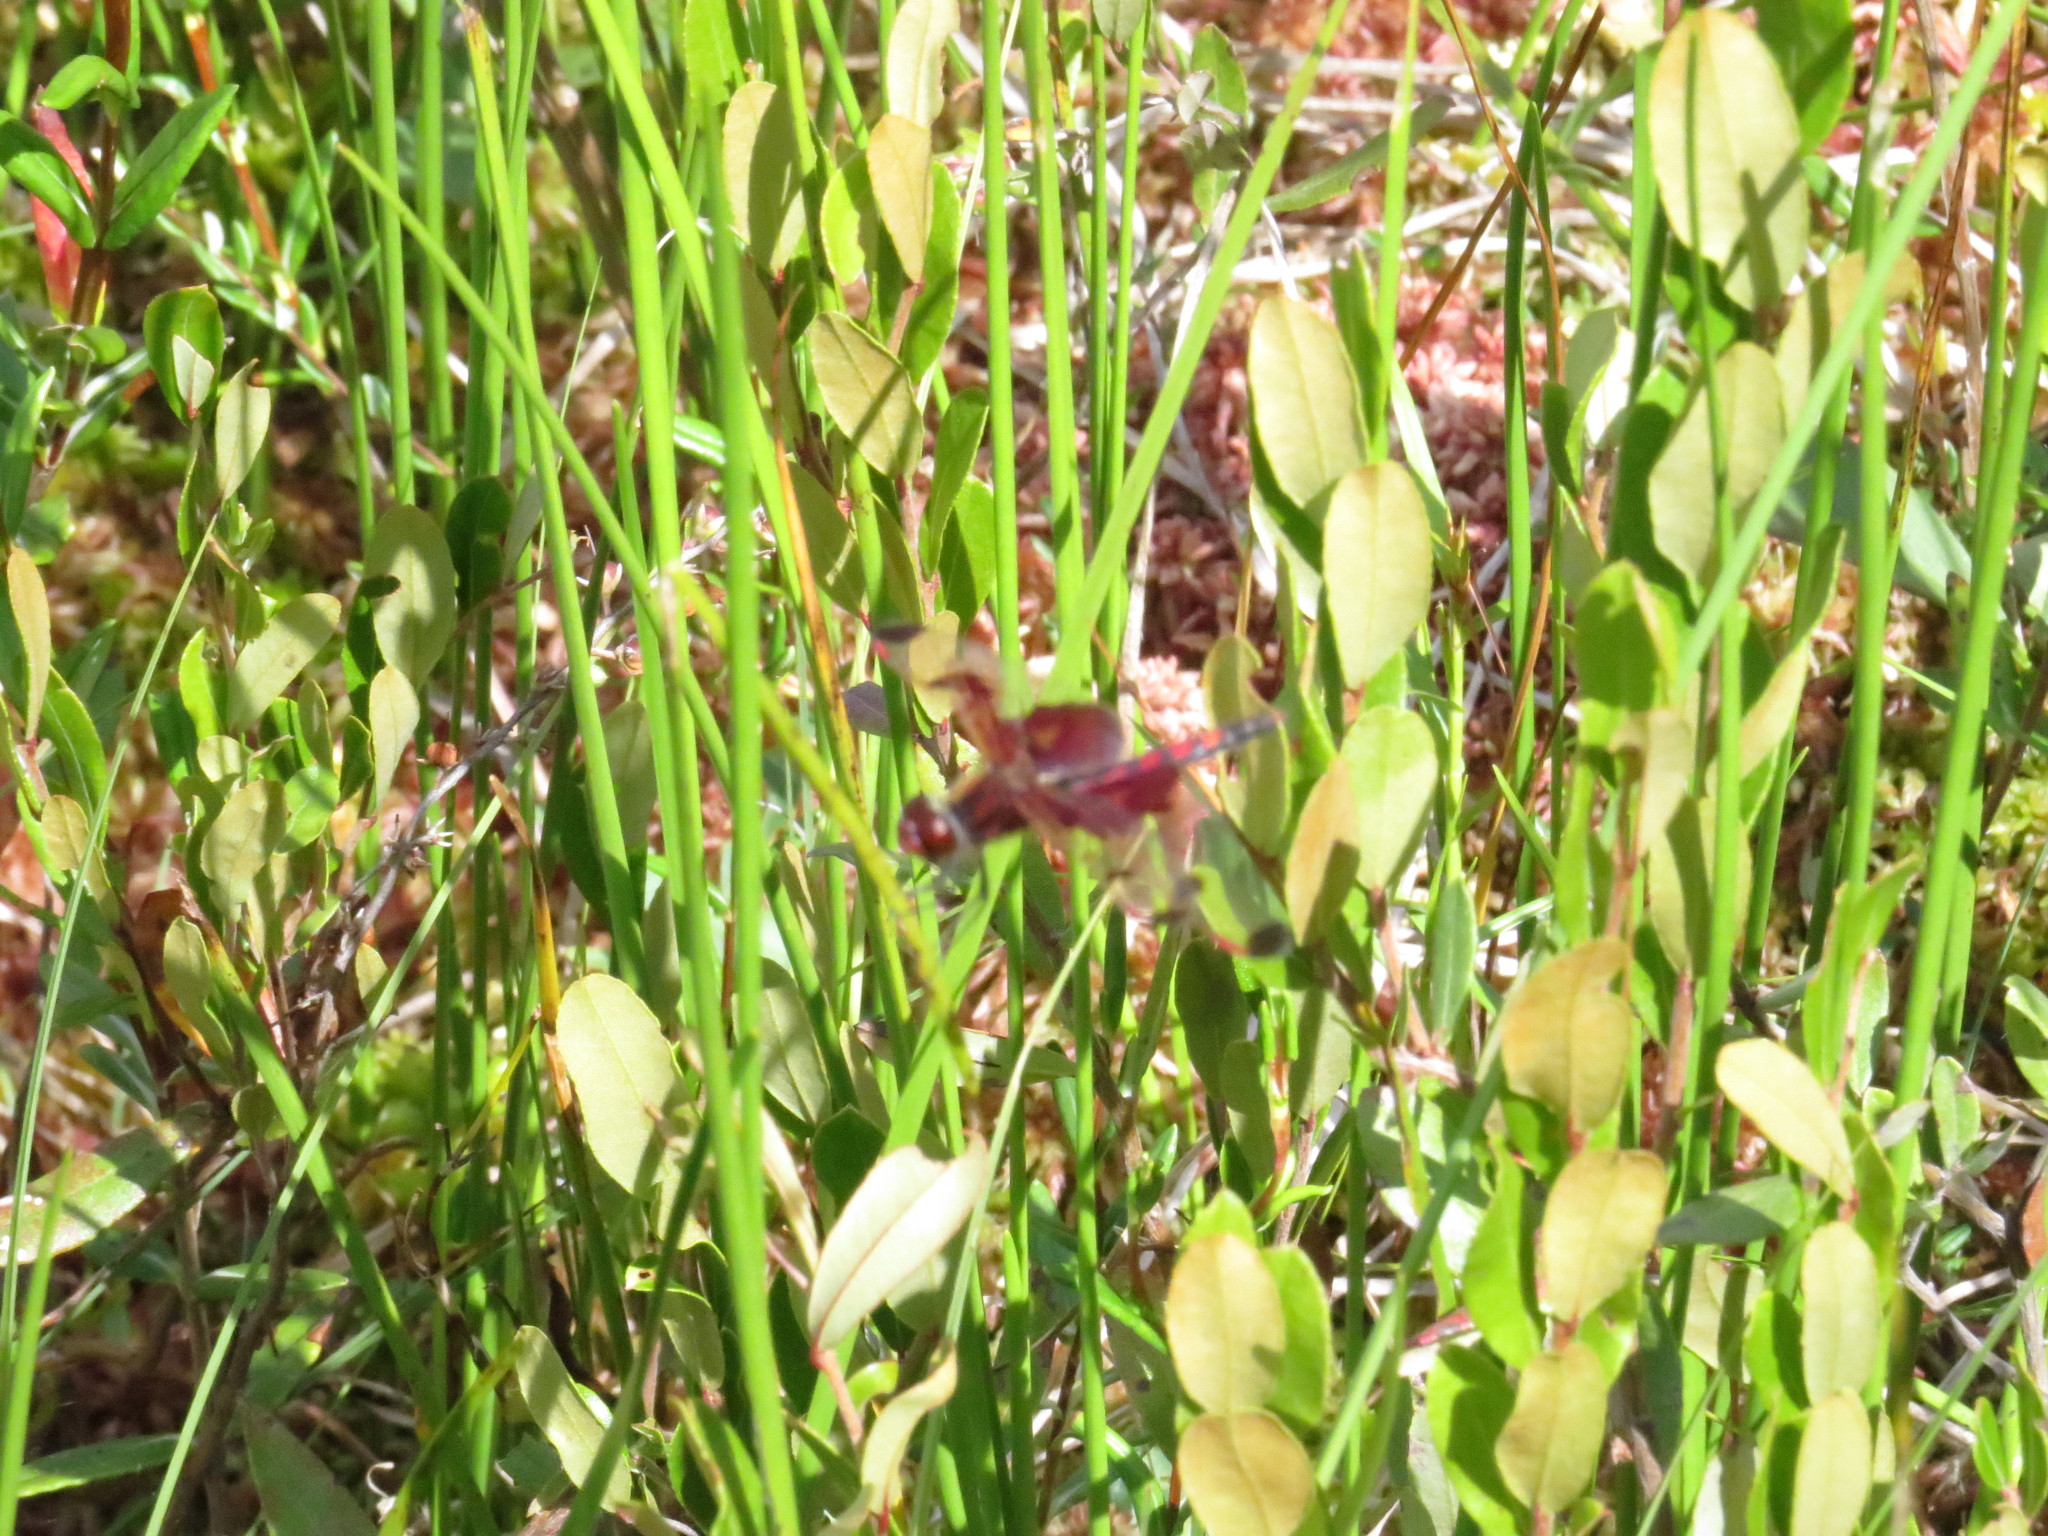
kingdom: Animalia
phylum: Arthropoda
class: Insecta
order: Odonata
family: Libellulidae
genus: Celithemis
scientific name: Celithemis elisa
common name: Calico pennant
